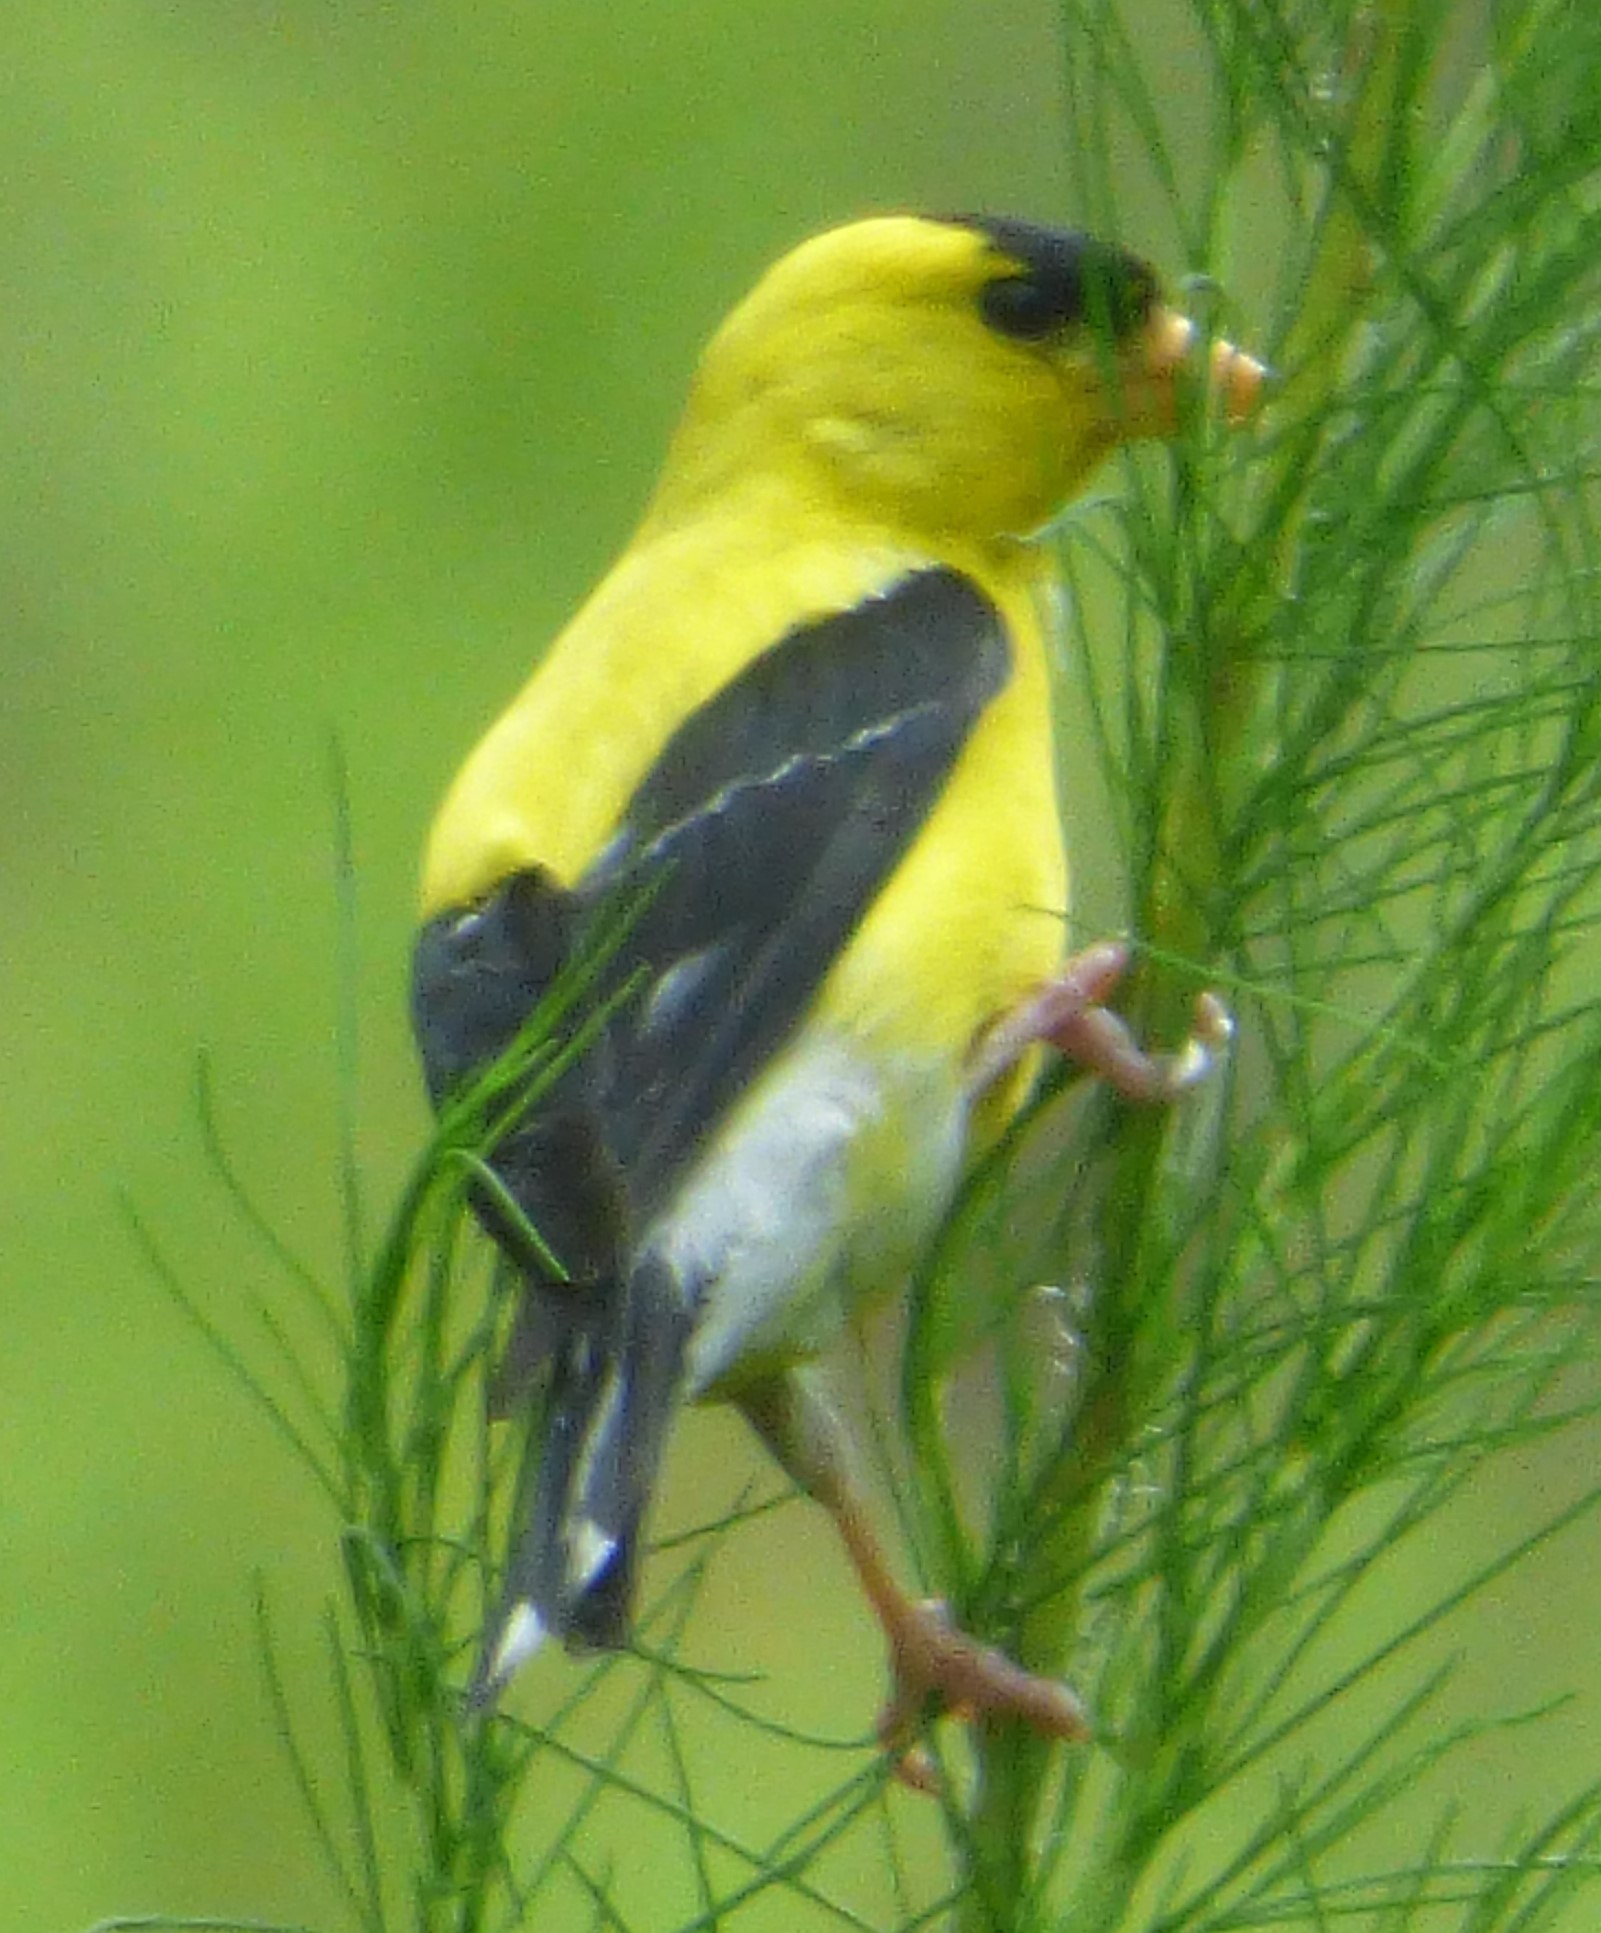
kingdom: Animalia
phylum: Chordata
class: Aves
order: Passeriformes
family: Fringillidae
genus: Spinus
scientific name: Spinus tristis
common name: American goldfinch
